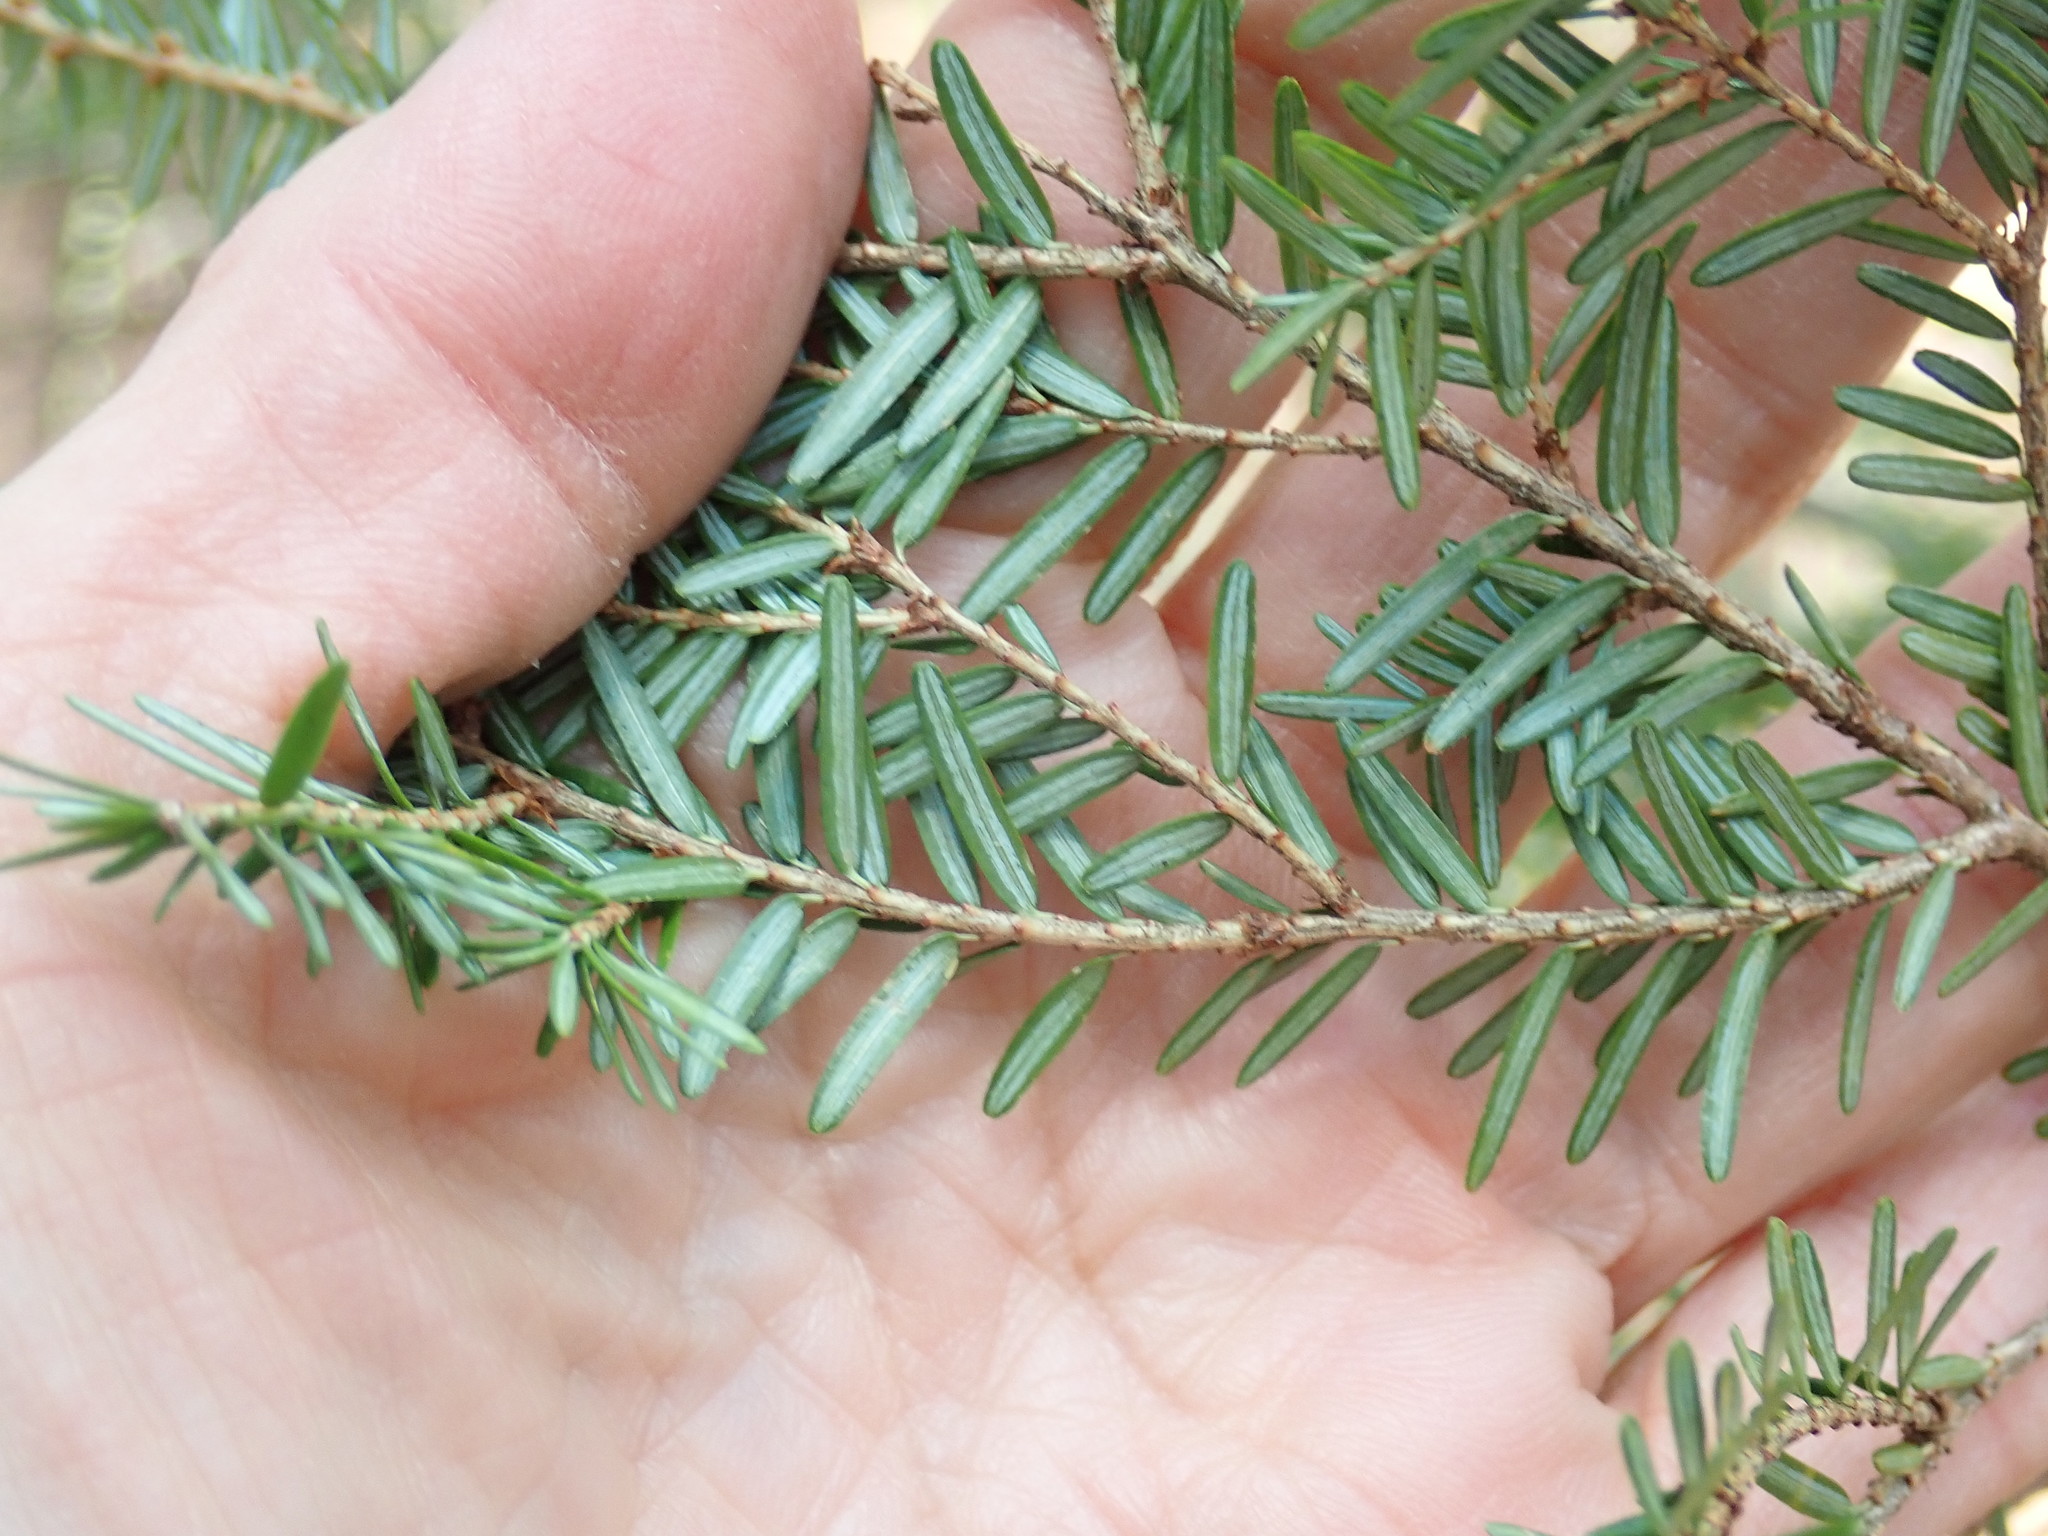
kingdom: Plantae
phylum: Tracheophyta
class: Pinopsida
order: Pinales
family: Pinaceae
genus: Tsuga
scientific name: Tsuga canadensis
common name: Eastern hemlock
